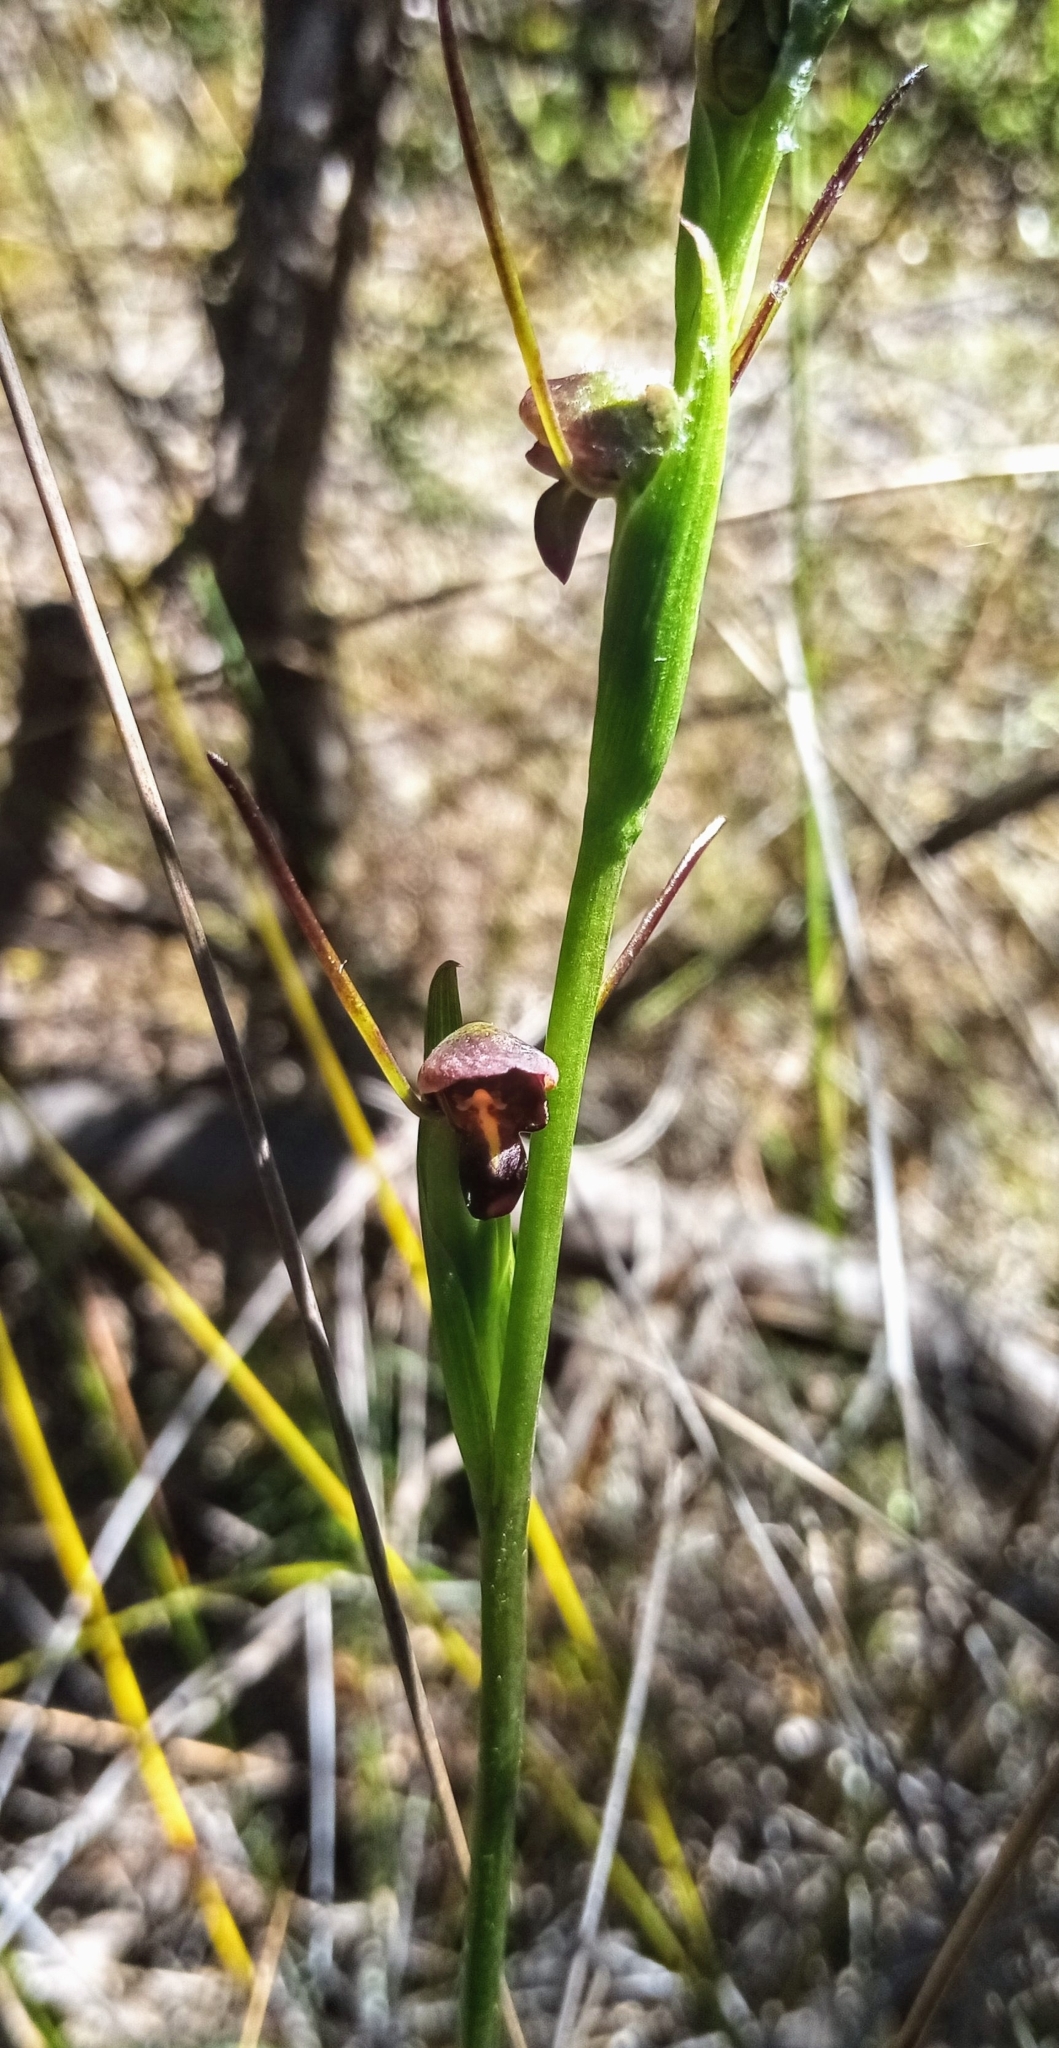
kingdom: Plantae
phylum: Tracheophyta
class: Liliopsida
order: Asparagales
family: Orchidaceae
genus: Orthoceras
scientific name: Orthoceras novae-zeelandiae
